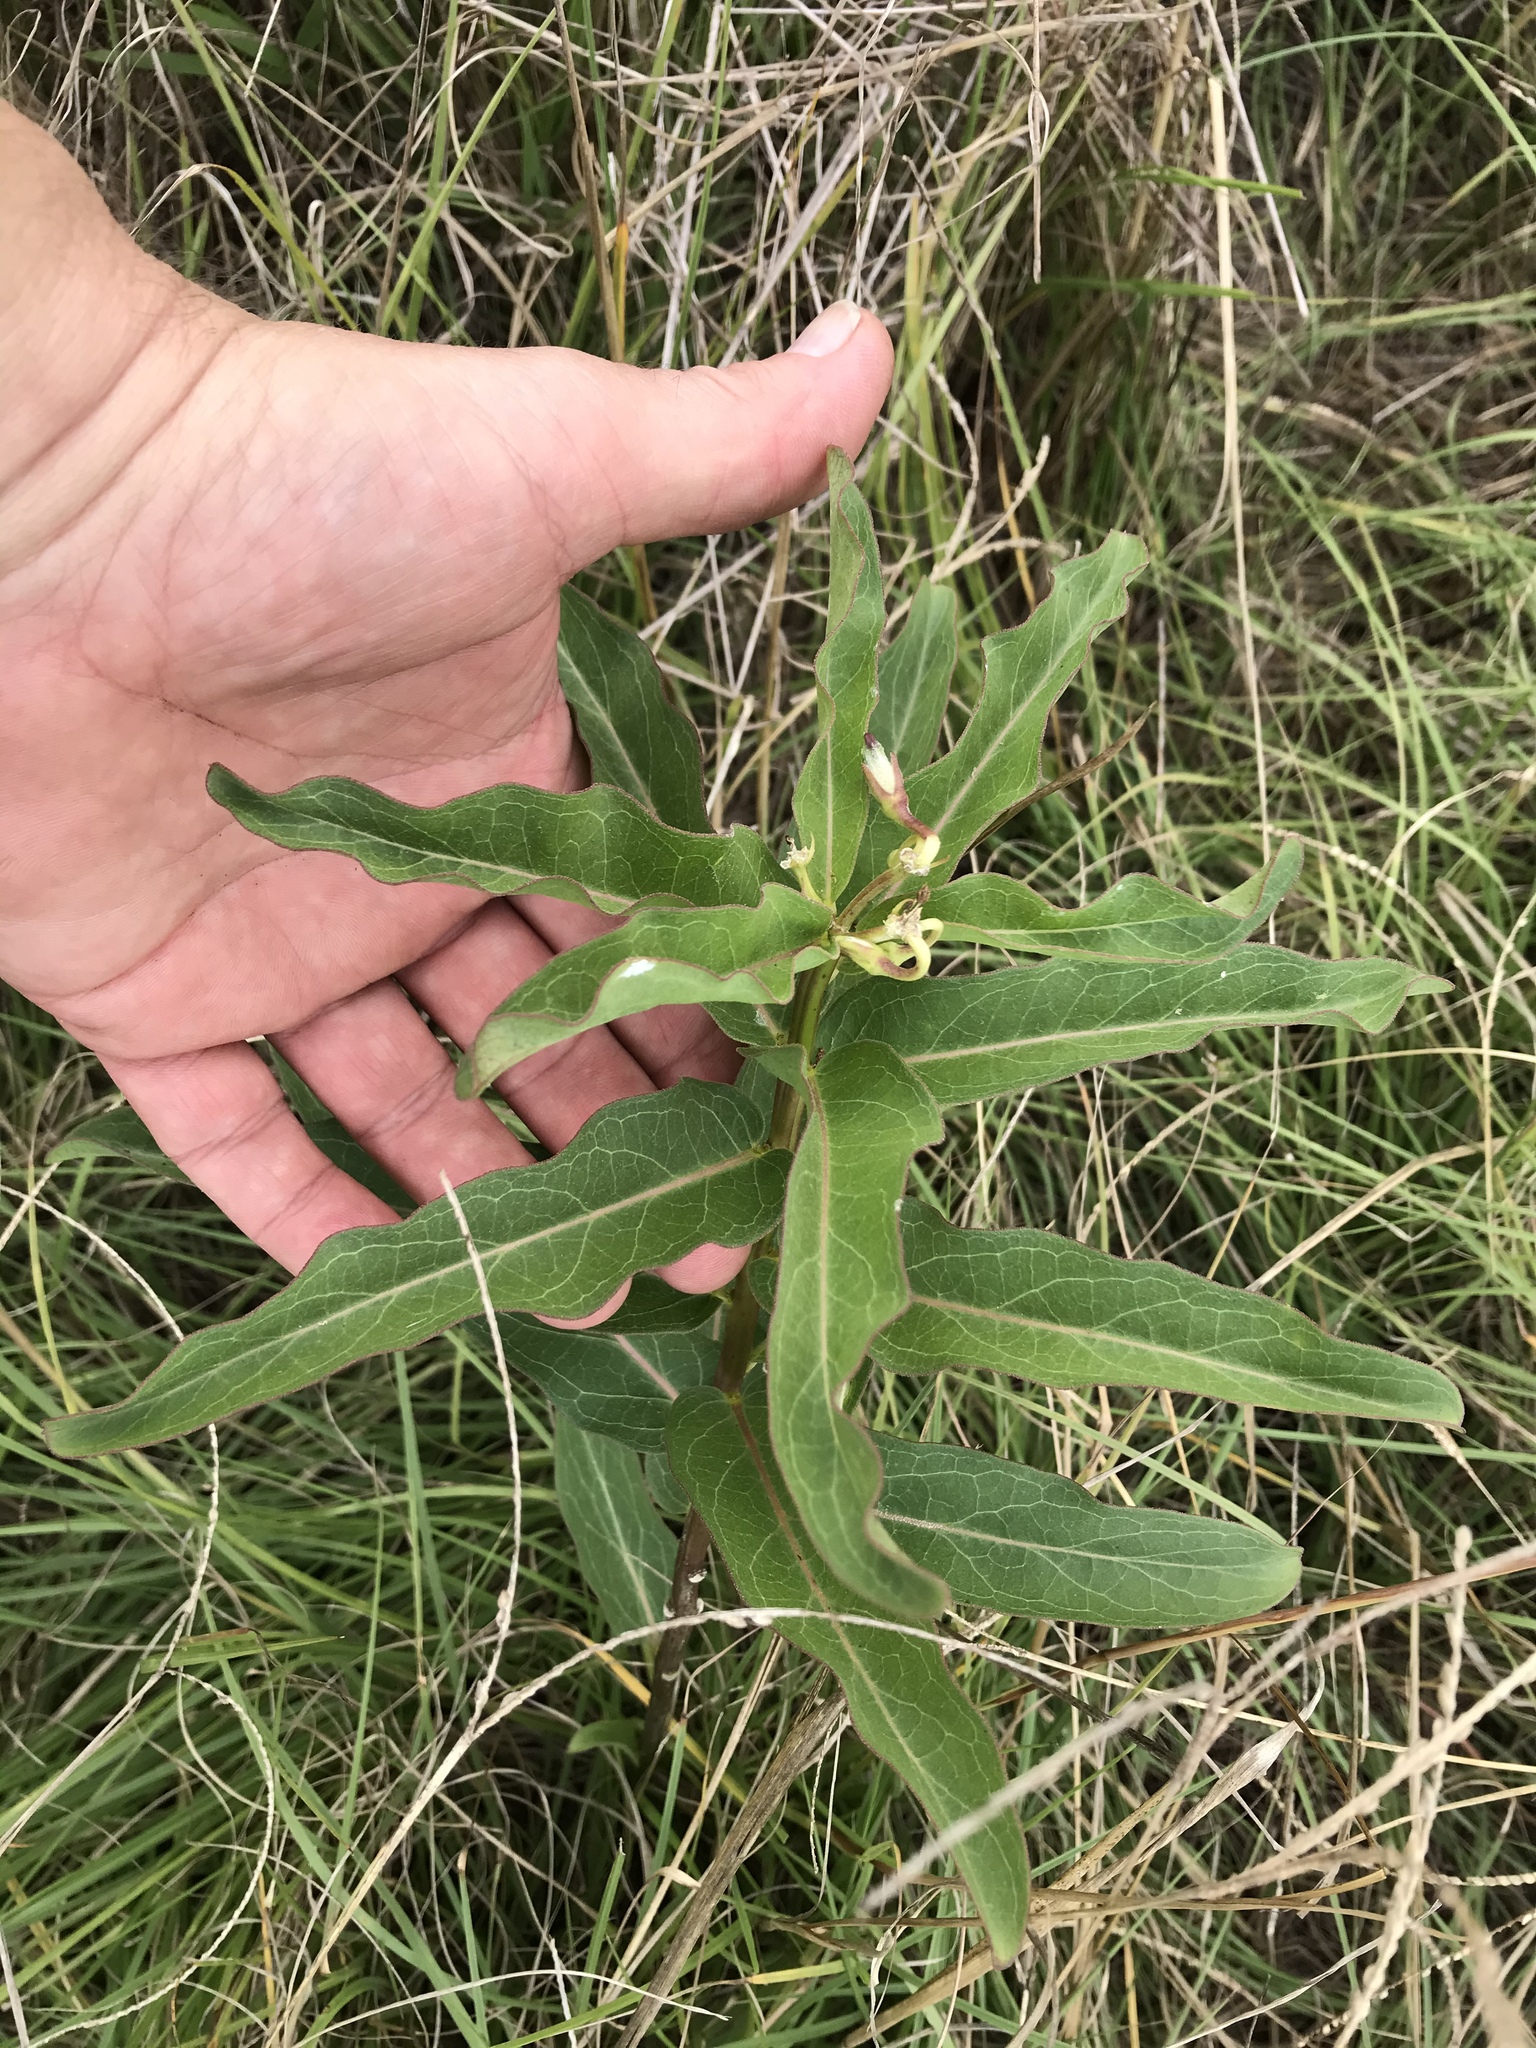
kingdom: Plantae
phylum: Tracheophyta
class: Magnoliopsida
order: Gentianales
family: Apocynaceae
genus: Asclepias
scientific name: Asclepias viridis
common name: Antelope-horns
